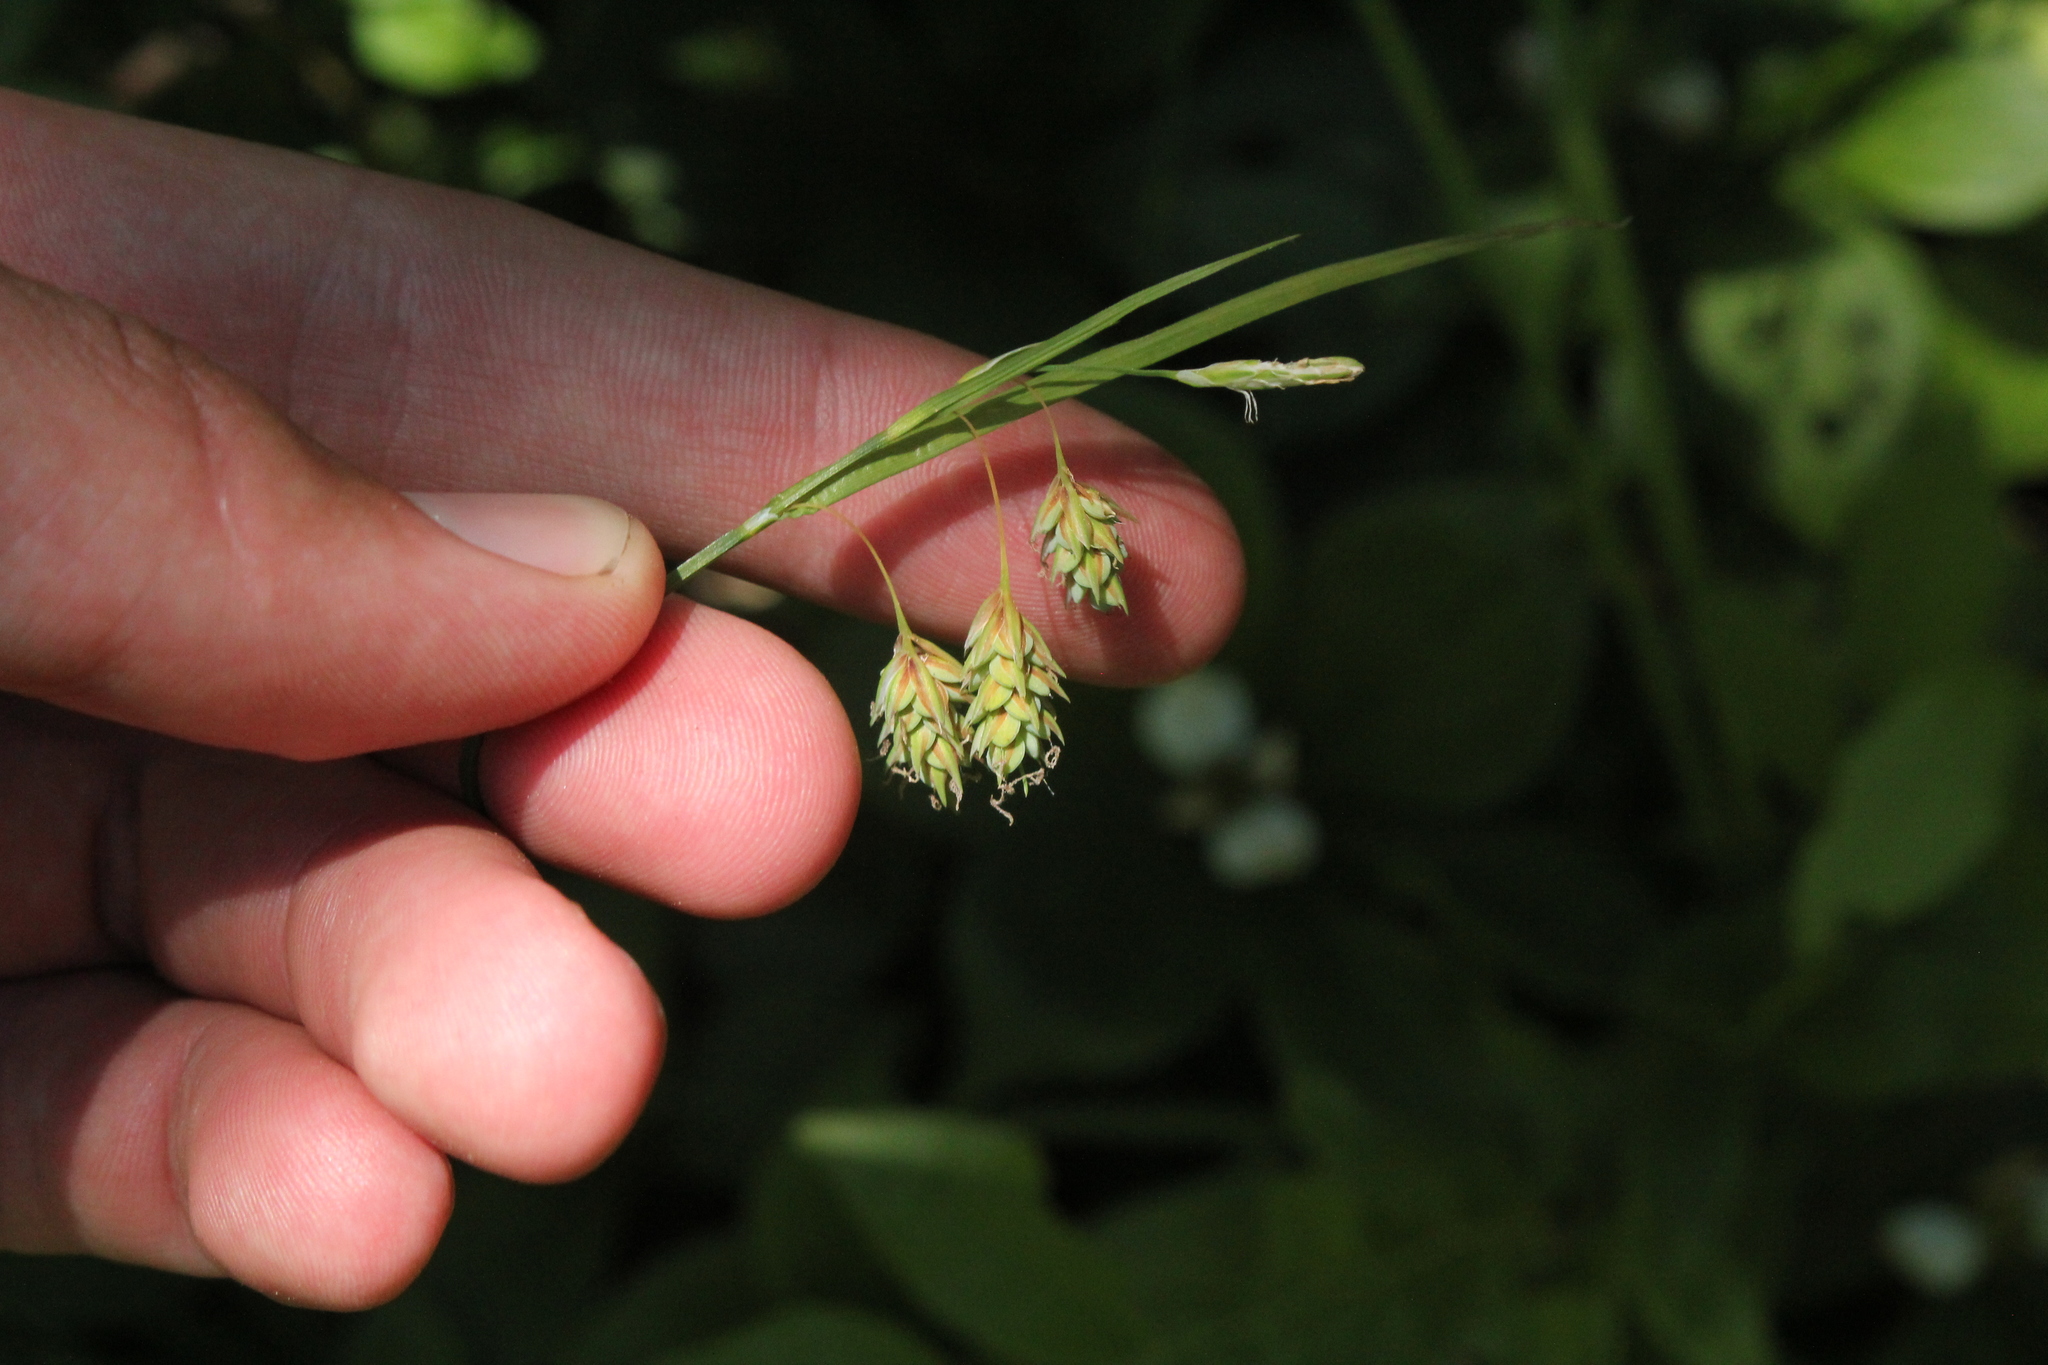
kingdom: Plantae
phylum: Tracheophyta
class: Liliopsida
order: Poales
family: Cyperaceae
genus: Carex
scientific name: Carex magellanica
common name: Bog sedge
